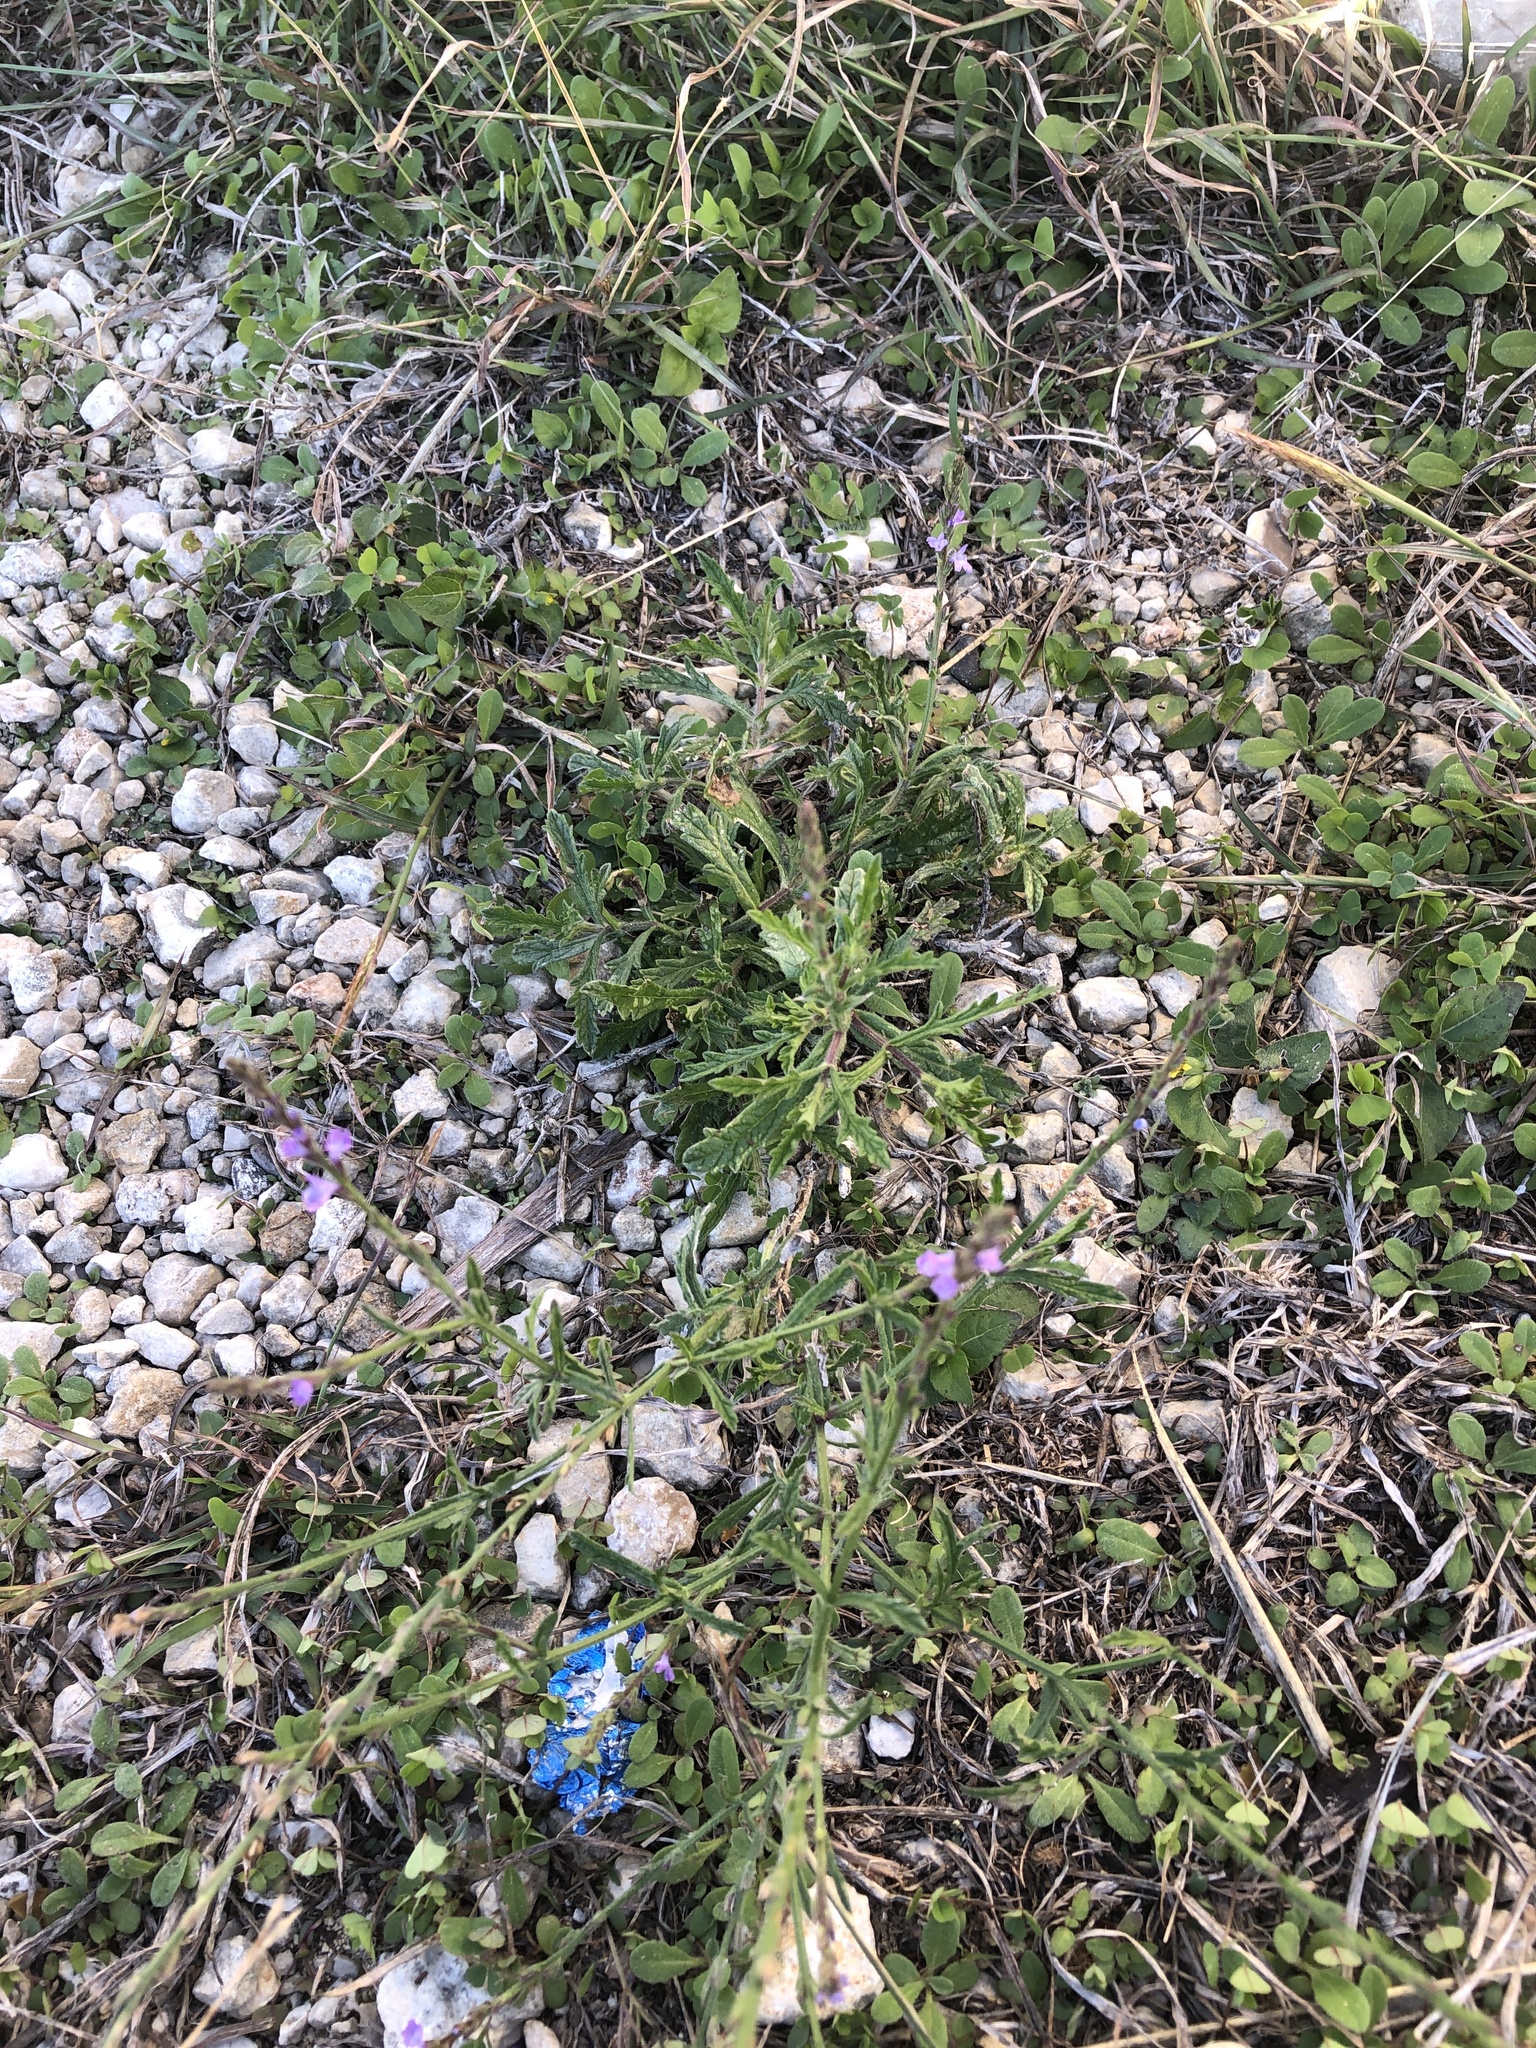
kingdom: Plantae
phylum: Tracheophyta
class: Magnoliopsida
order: Lamiales
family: Verbenaceae
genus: Verbena
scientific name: Verbena canescens
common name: Gray vervain
